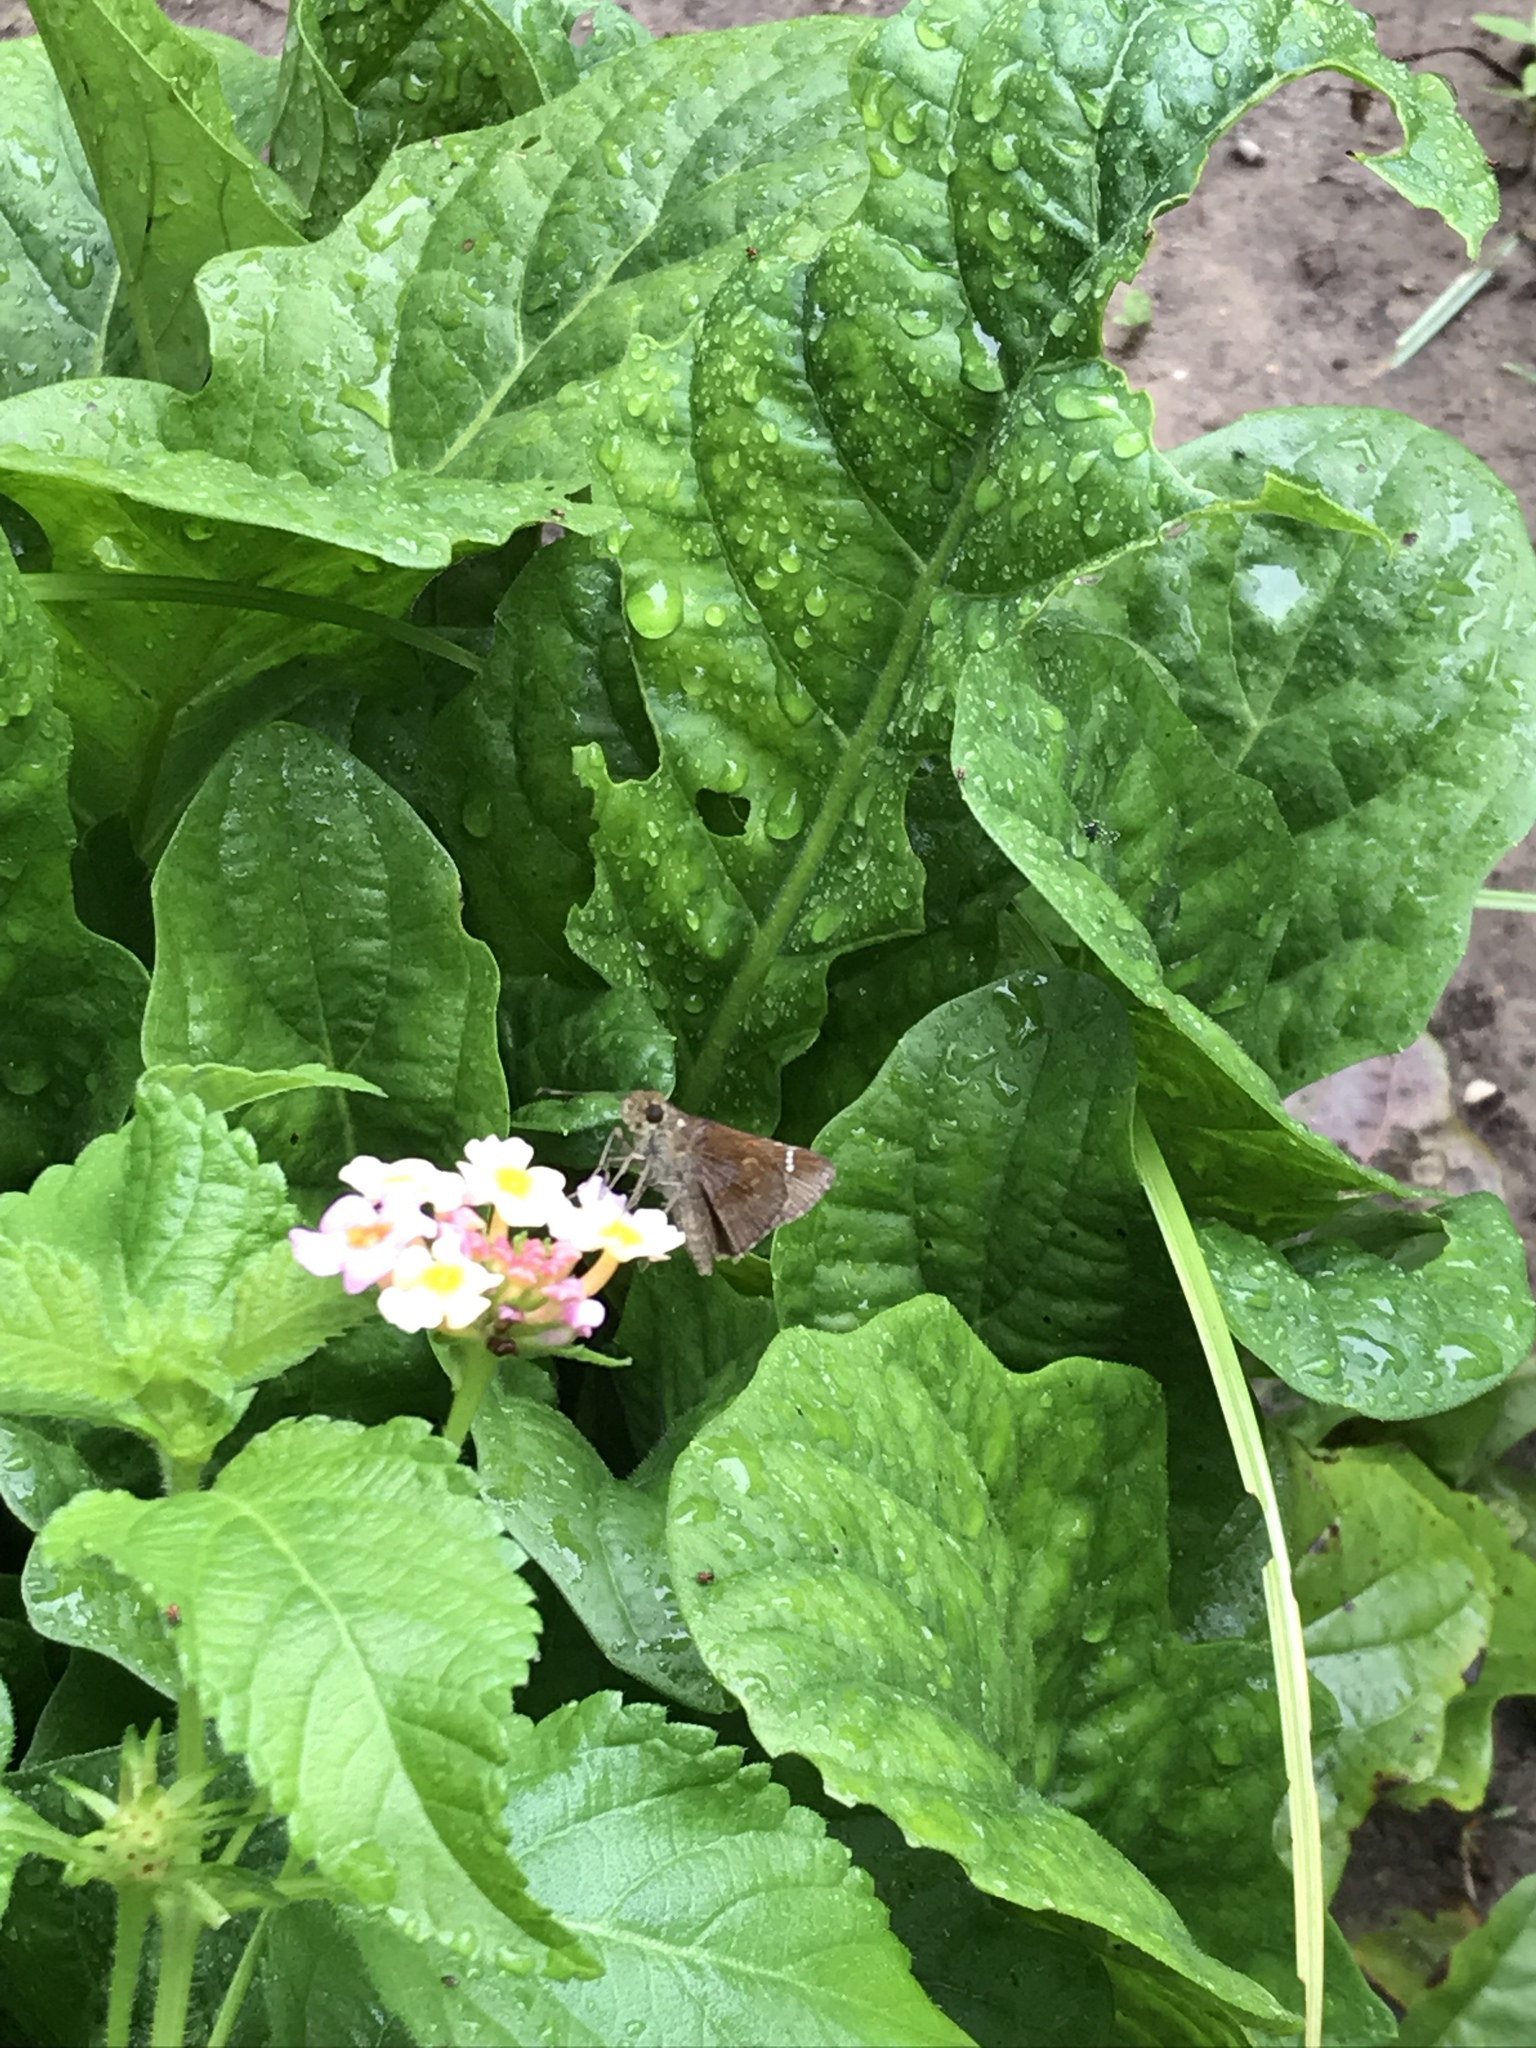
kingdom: Animalia
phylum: Arthropoda
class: Insecta
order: Lepidoptera
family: Hesperiidae
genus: Lerema
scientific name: Lerema accius
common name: Clouded skipper
